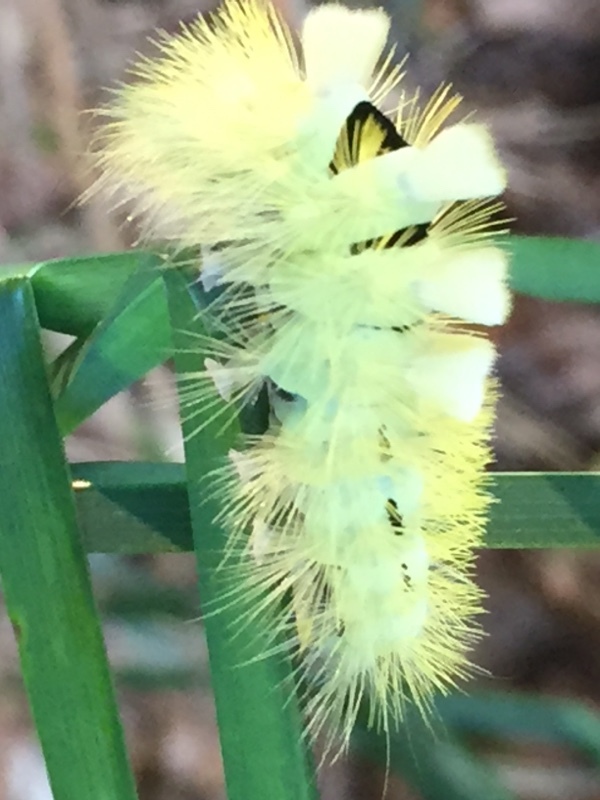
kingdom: Animalia
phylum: Arthropoda
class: Insecta
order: Lepidoptera
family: Erebidae
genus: Calliteara
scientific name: Calliteara pudibunda
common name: Pale tussock
